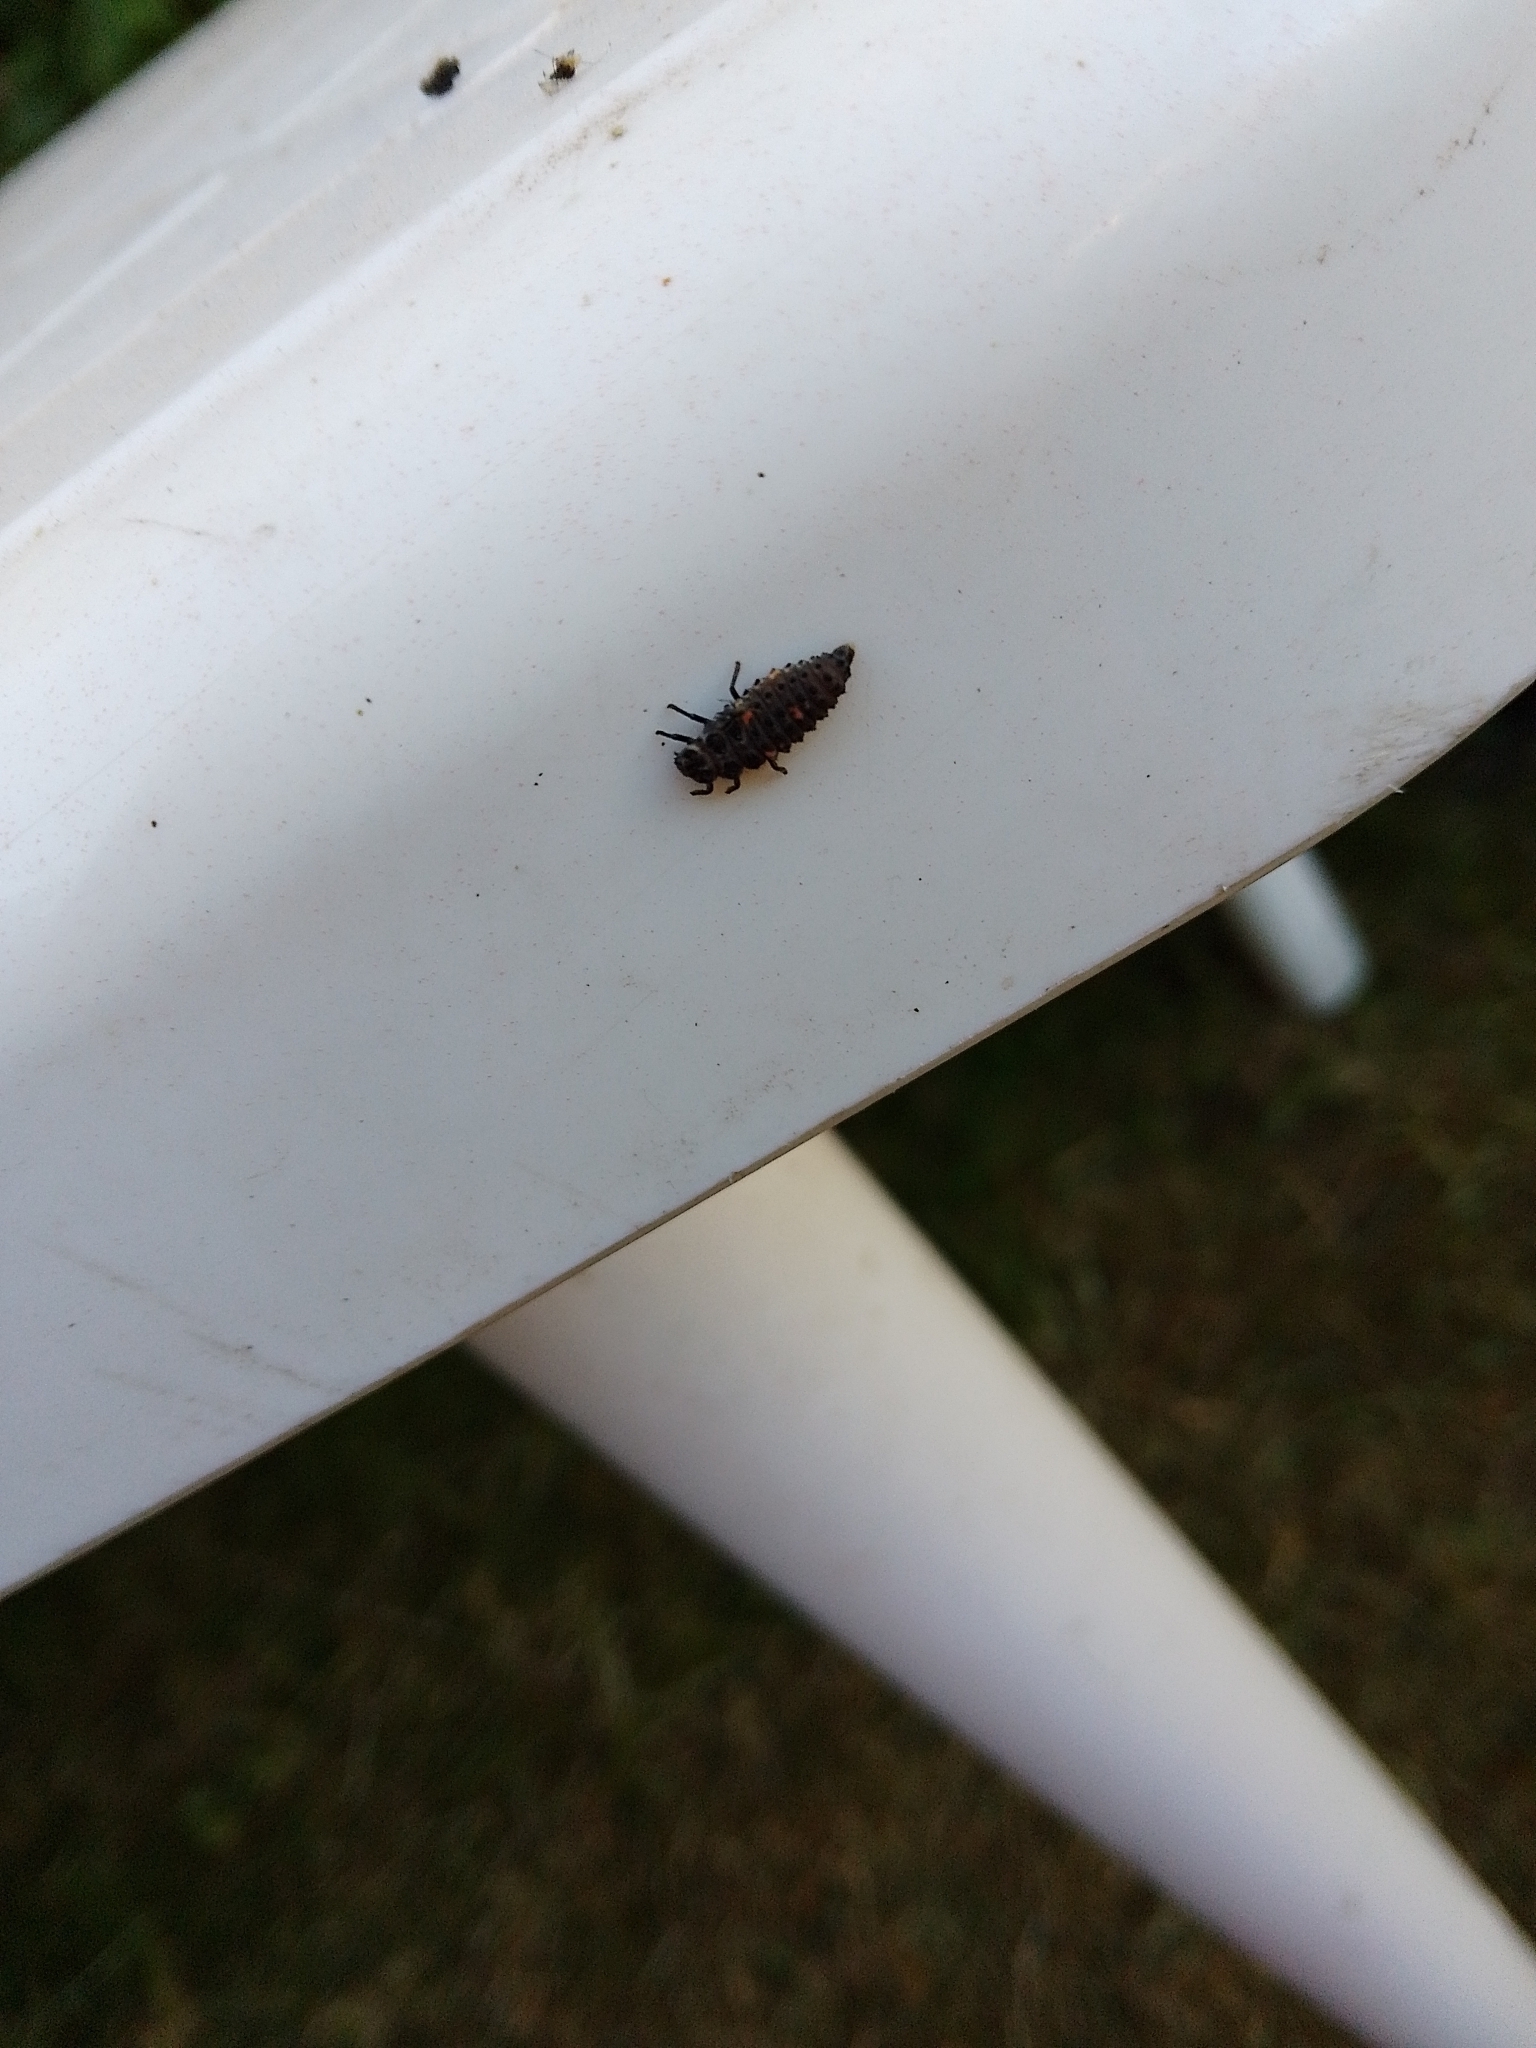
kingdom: Animalia
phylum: Arthropoda
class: Insecta
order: Coleoptera
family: Coccinellidae
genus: Adalia
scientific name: Adalia bipunctata
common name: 2-spot ladybird
